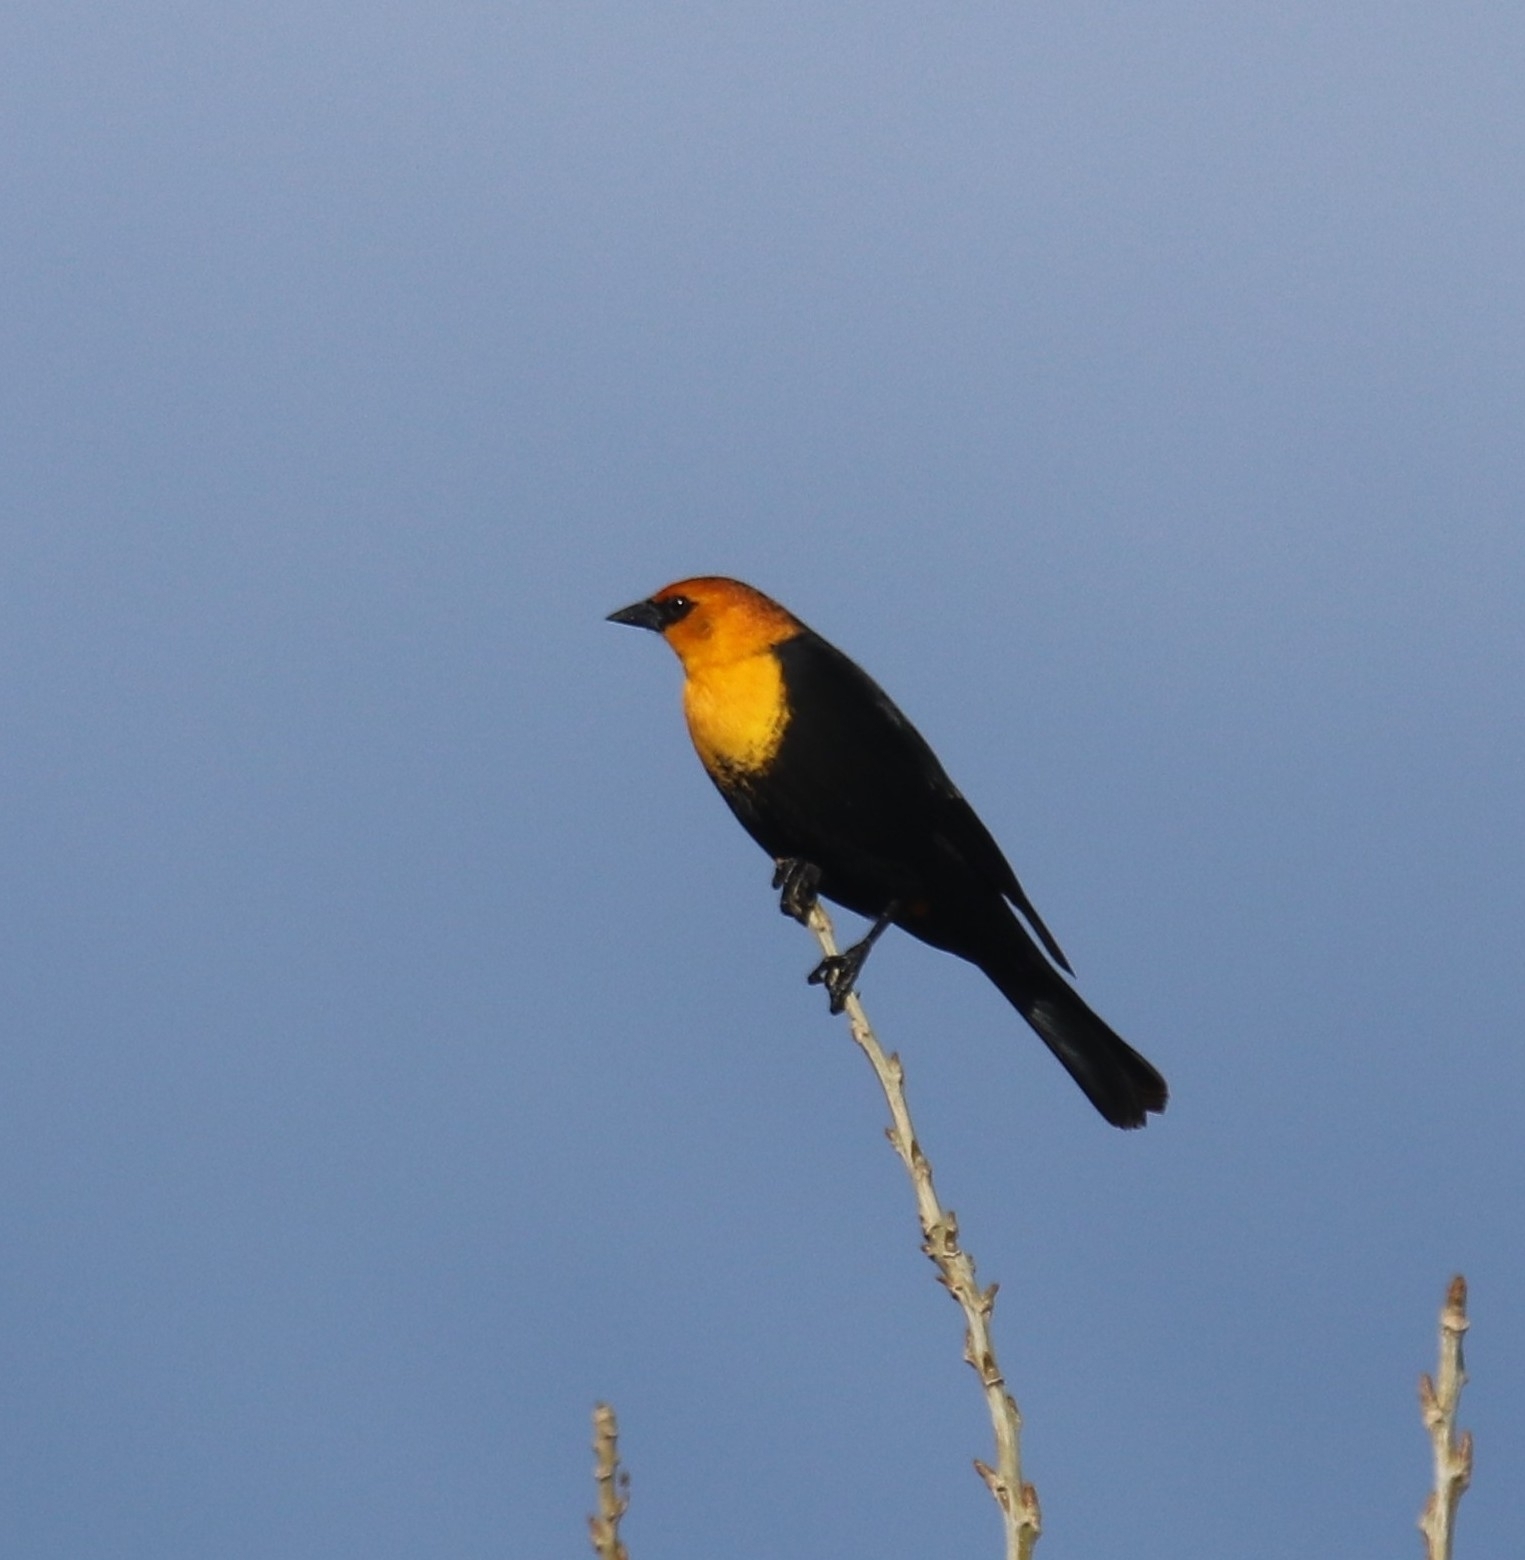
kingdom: Animalia
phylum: Chordata
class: Aves
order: Passeriformes
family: Icteridae
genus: Xanthocephalus
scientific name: Xanthocephalus xanthocephalus
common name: Yellow-headed blackbird
